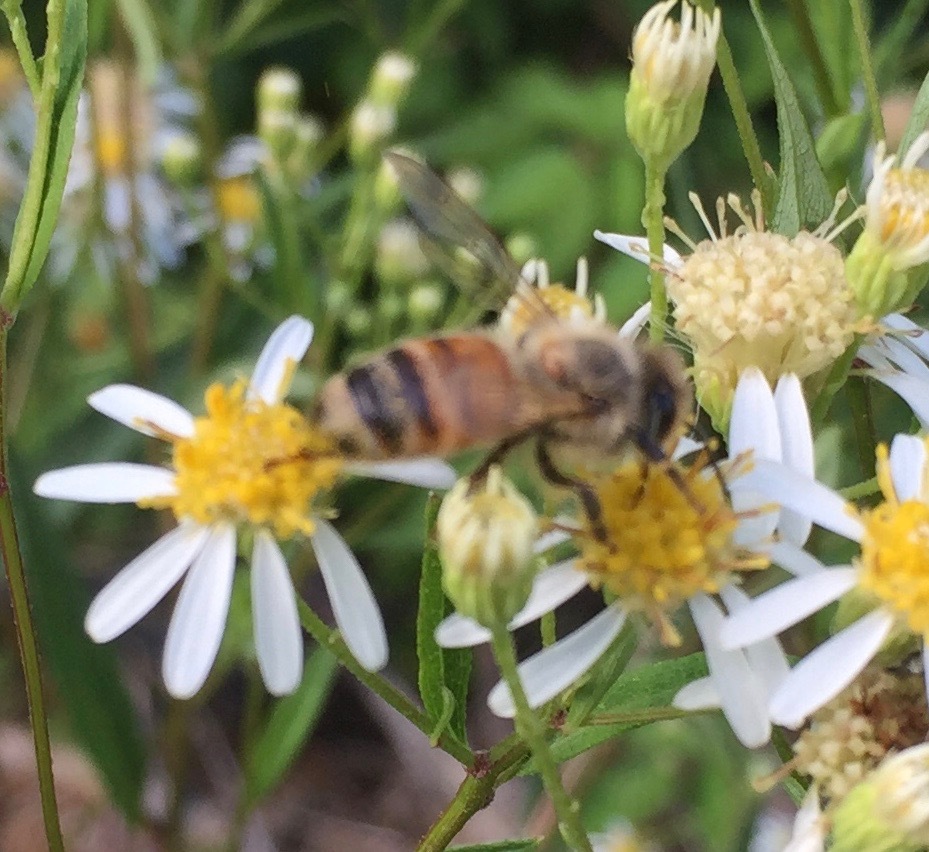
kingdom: Animalia
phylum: Arthropoda
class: Insecta
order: Hymenoptera
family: Apidae
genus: Apis
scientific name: Apis mellifera
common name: Honey bee
